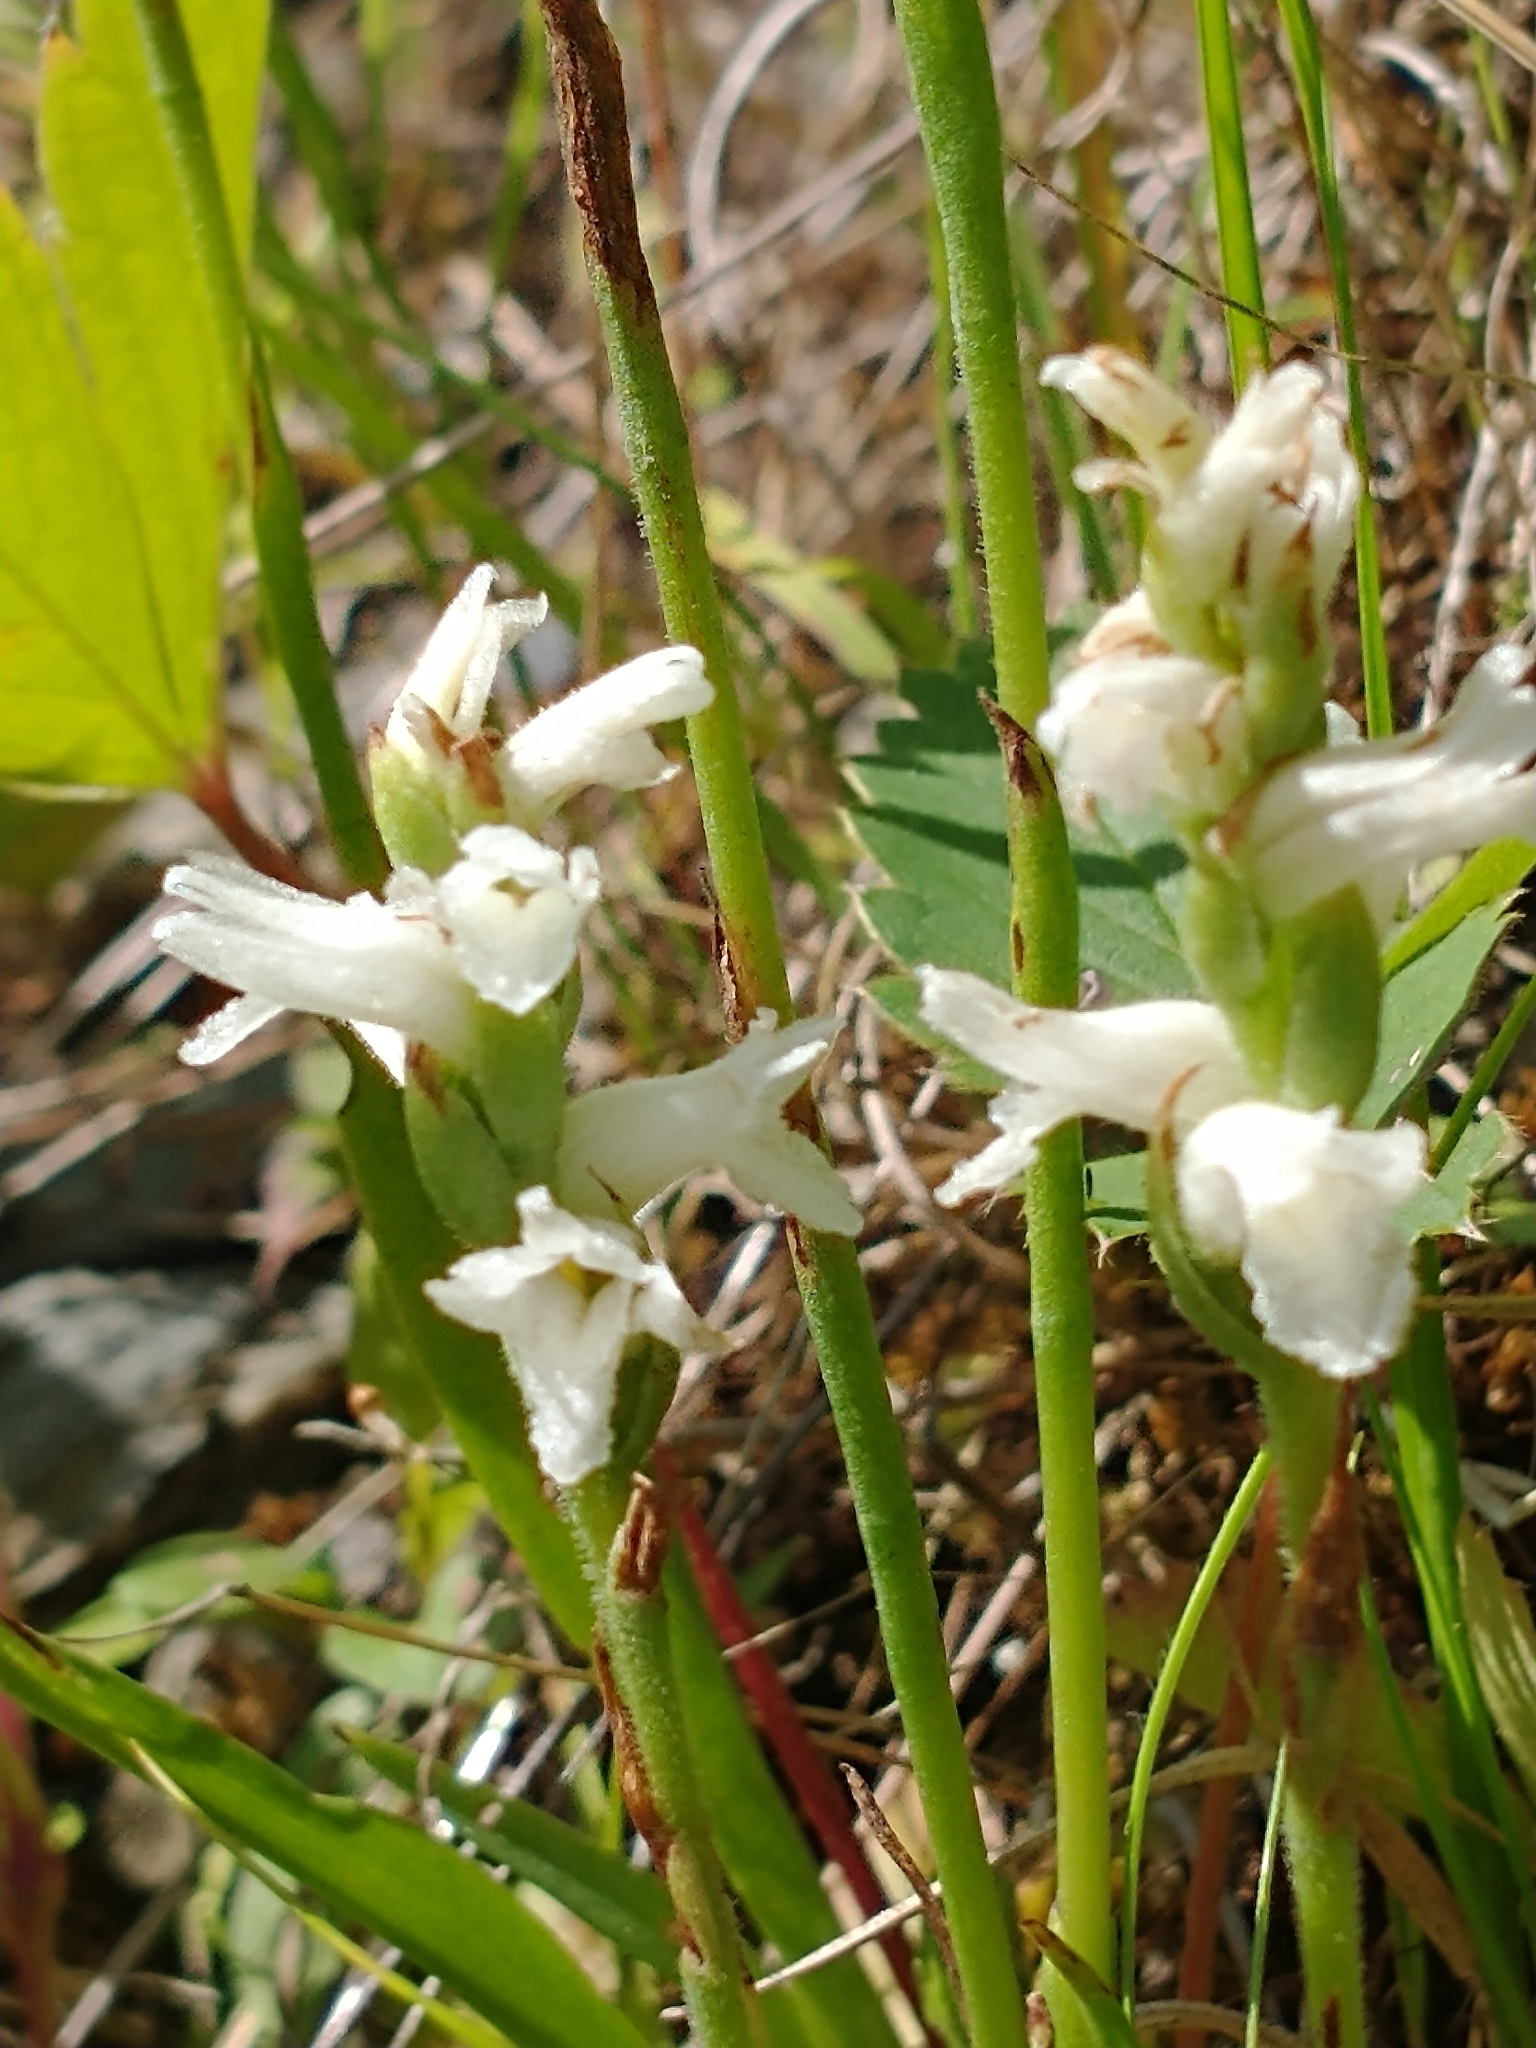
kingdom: Plantae
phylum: Tracheophyta
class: Liliopsida
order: Asparagales
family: Orchidaceae
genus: Spiranthes
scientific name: Spiranthes incurva
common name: Sphinx ladies'-tresses
